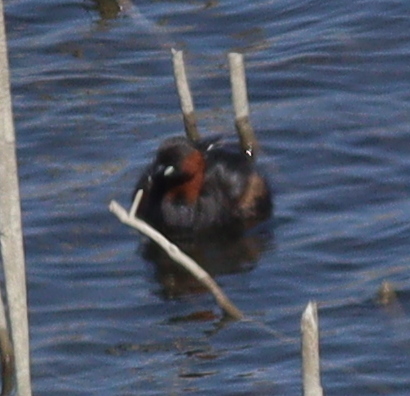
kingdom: Animalia
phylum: Chordata
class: Aves
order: Podicipediformes
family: Podicipedidae
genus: Tachybaptus
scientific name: Tachybaptus ruficollis
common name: Little grebe
